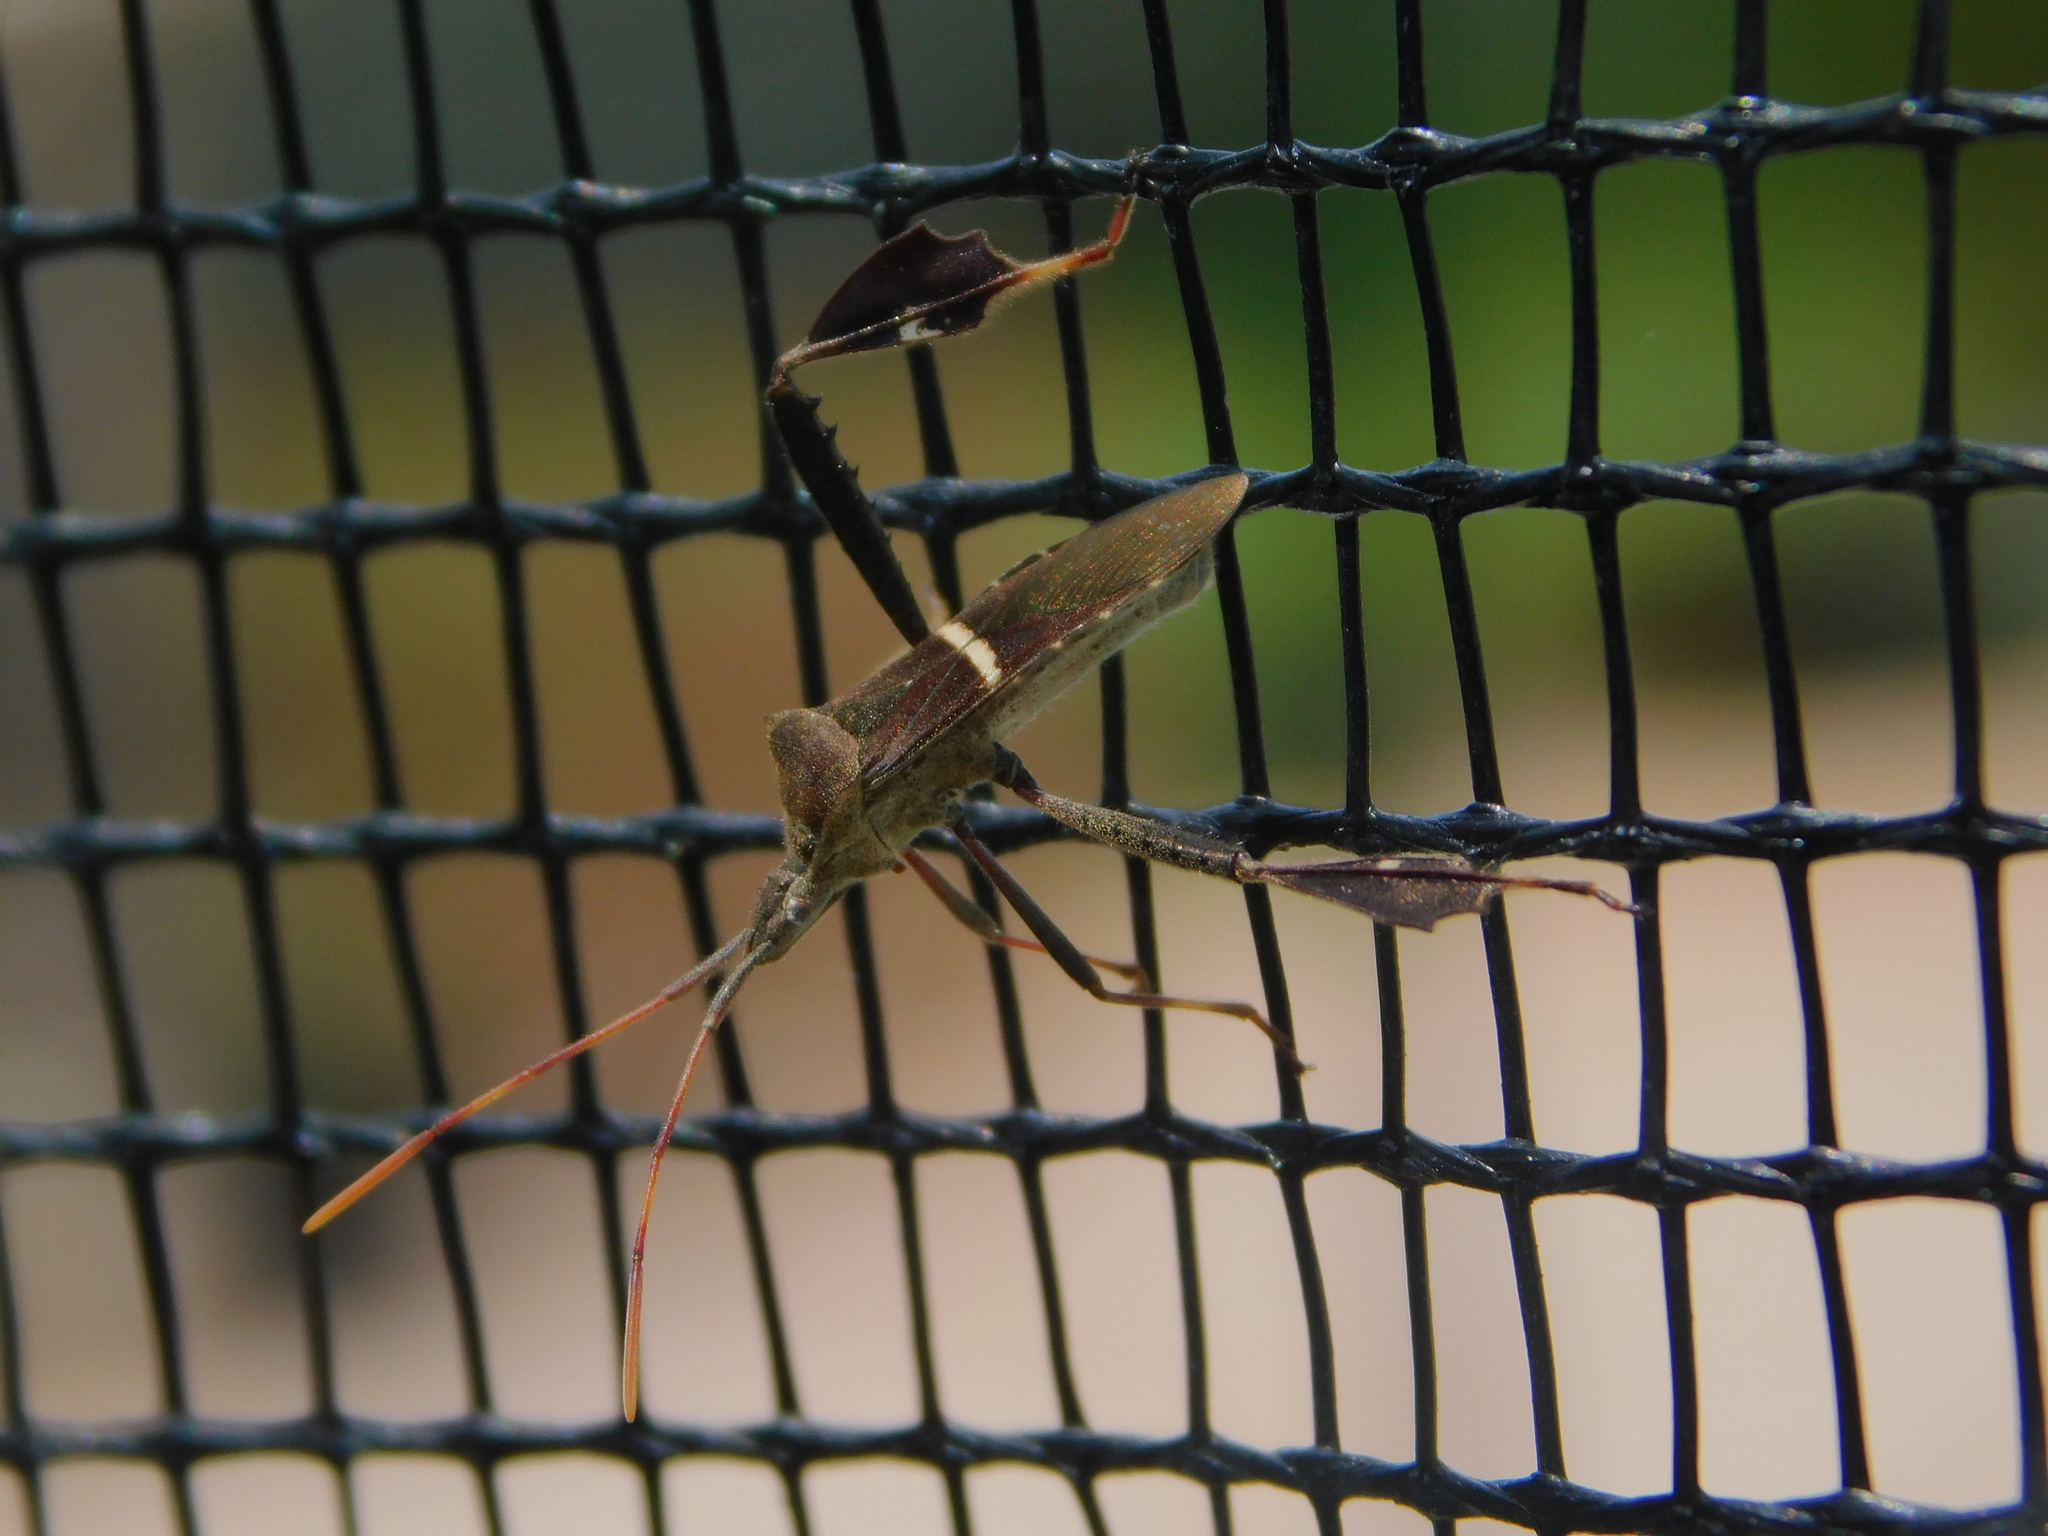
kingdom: Animalia
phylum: Arthropoda
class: Insecta
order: Hemiptera
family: Coreidae
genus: Leptoglossus
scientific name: Leptoglossus phyllopus
